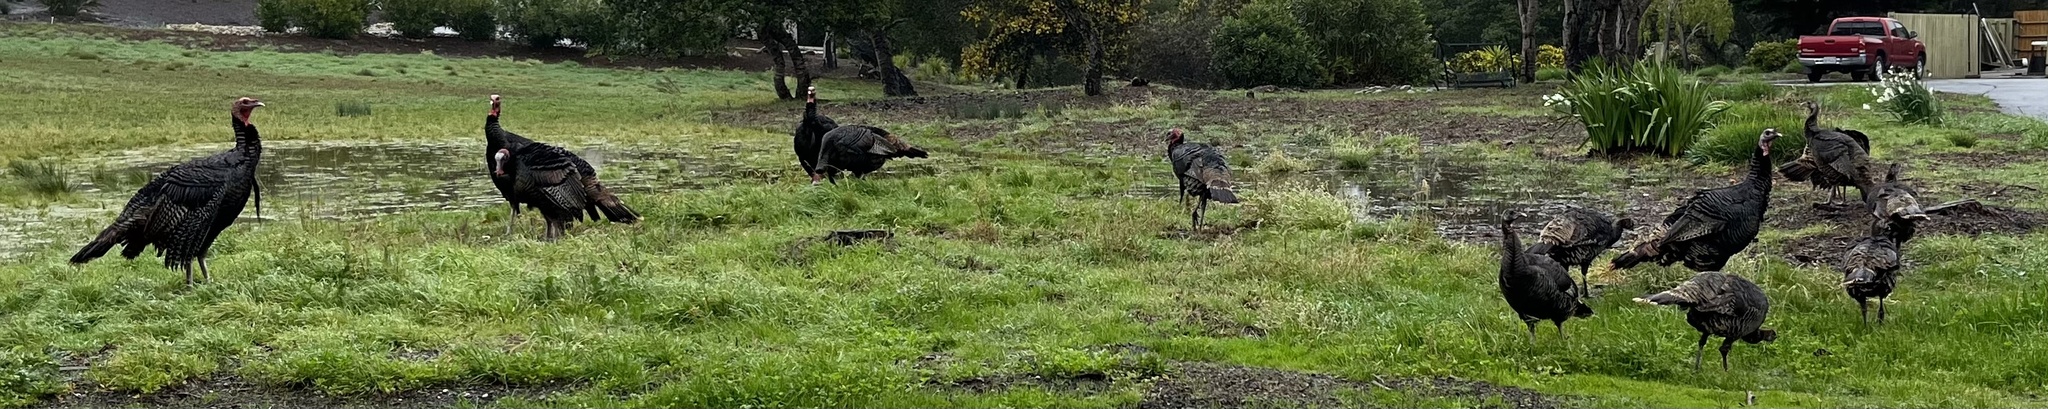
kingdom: Animalia
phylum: Chordata
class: Aves
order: Galliformes
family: Phasianidae
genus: Meleagris
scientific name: Meleagris gallopavo
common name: Wild turkey
